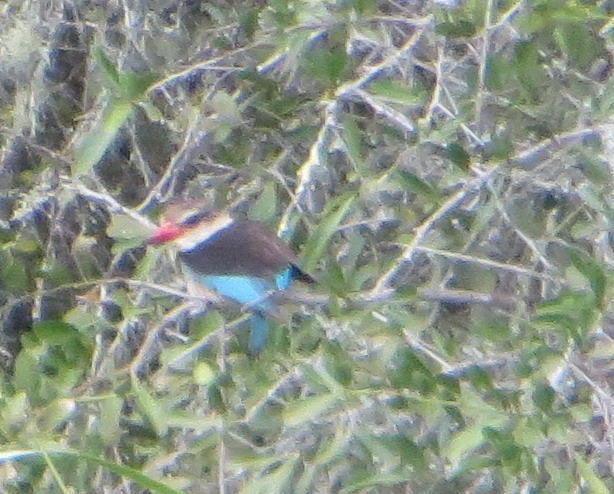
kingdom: Animalia
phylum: Chordata
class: Aves
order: Coraciiformes
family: Alcedinidae
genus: Halcyon
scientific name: Halcyon albiventris
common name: Brown-hooded kingfisher
